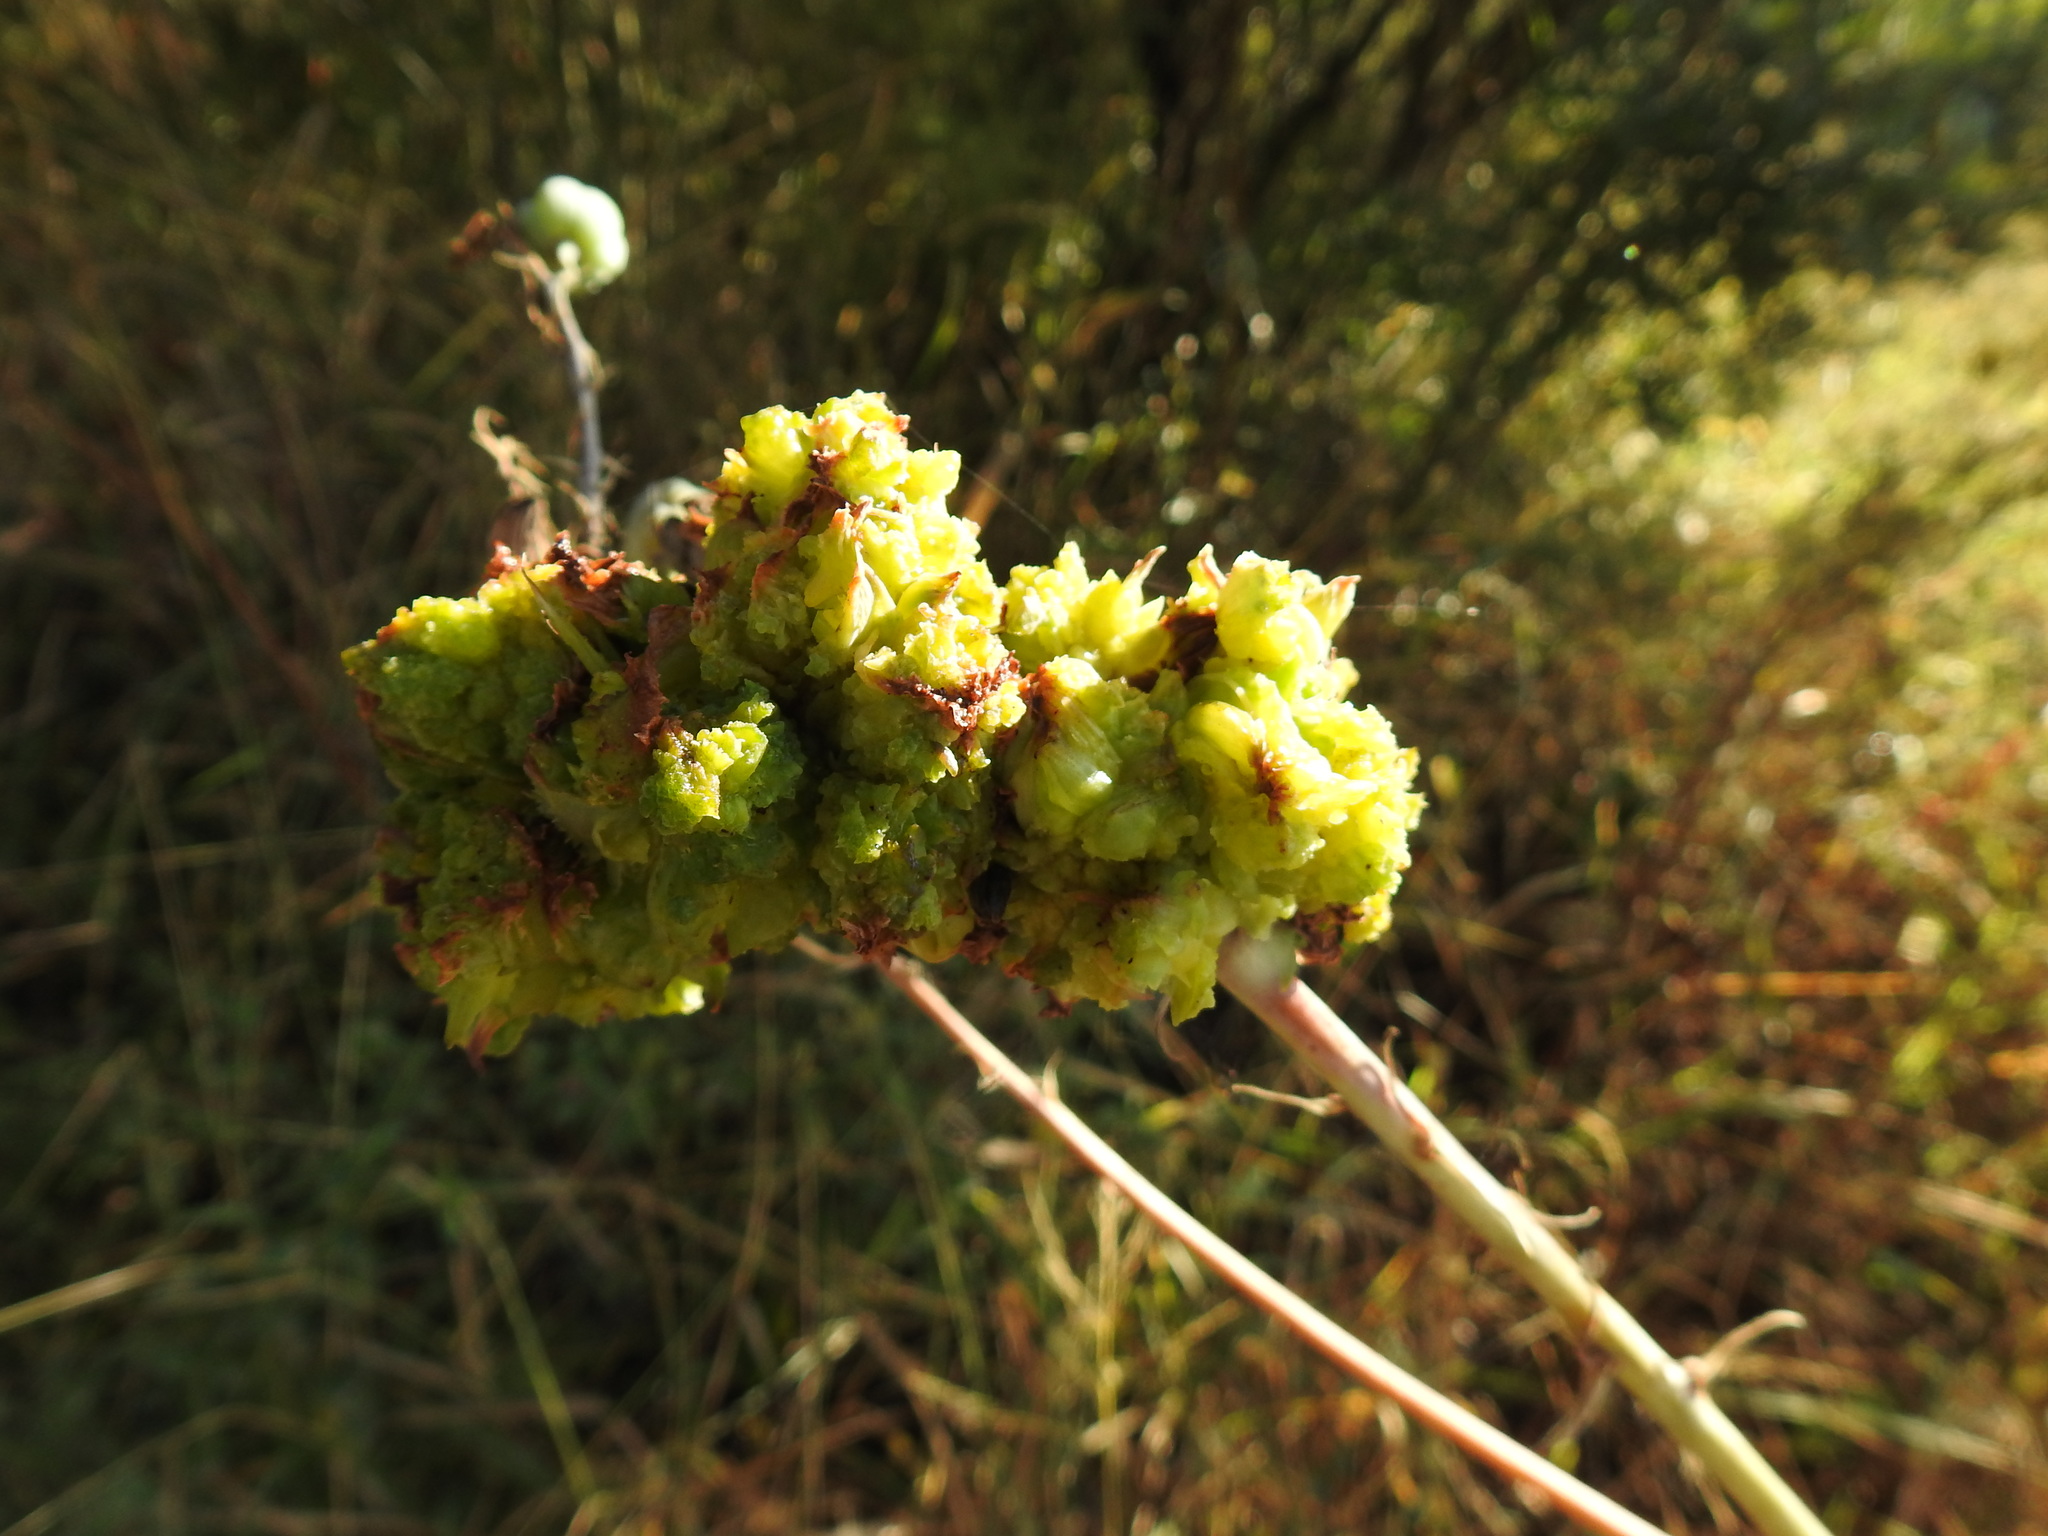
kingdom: Animalia
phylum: Arthropoda
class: Arachnida
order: Trombidiformes
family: Eriophyidae
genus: Aceria
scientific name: Aceria aloinis
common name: Mite
